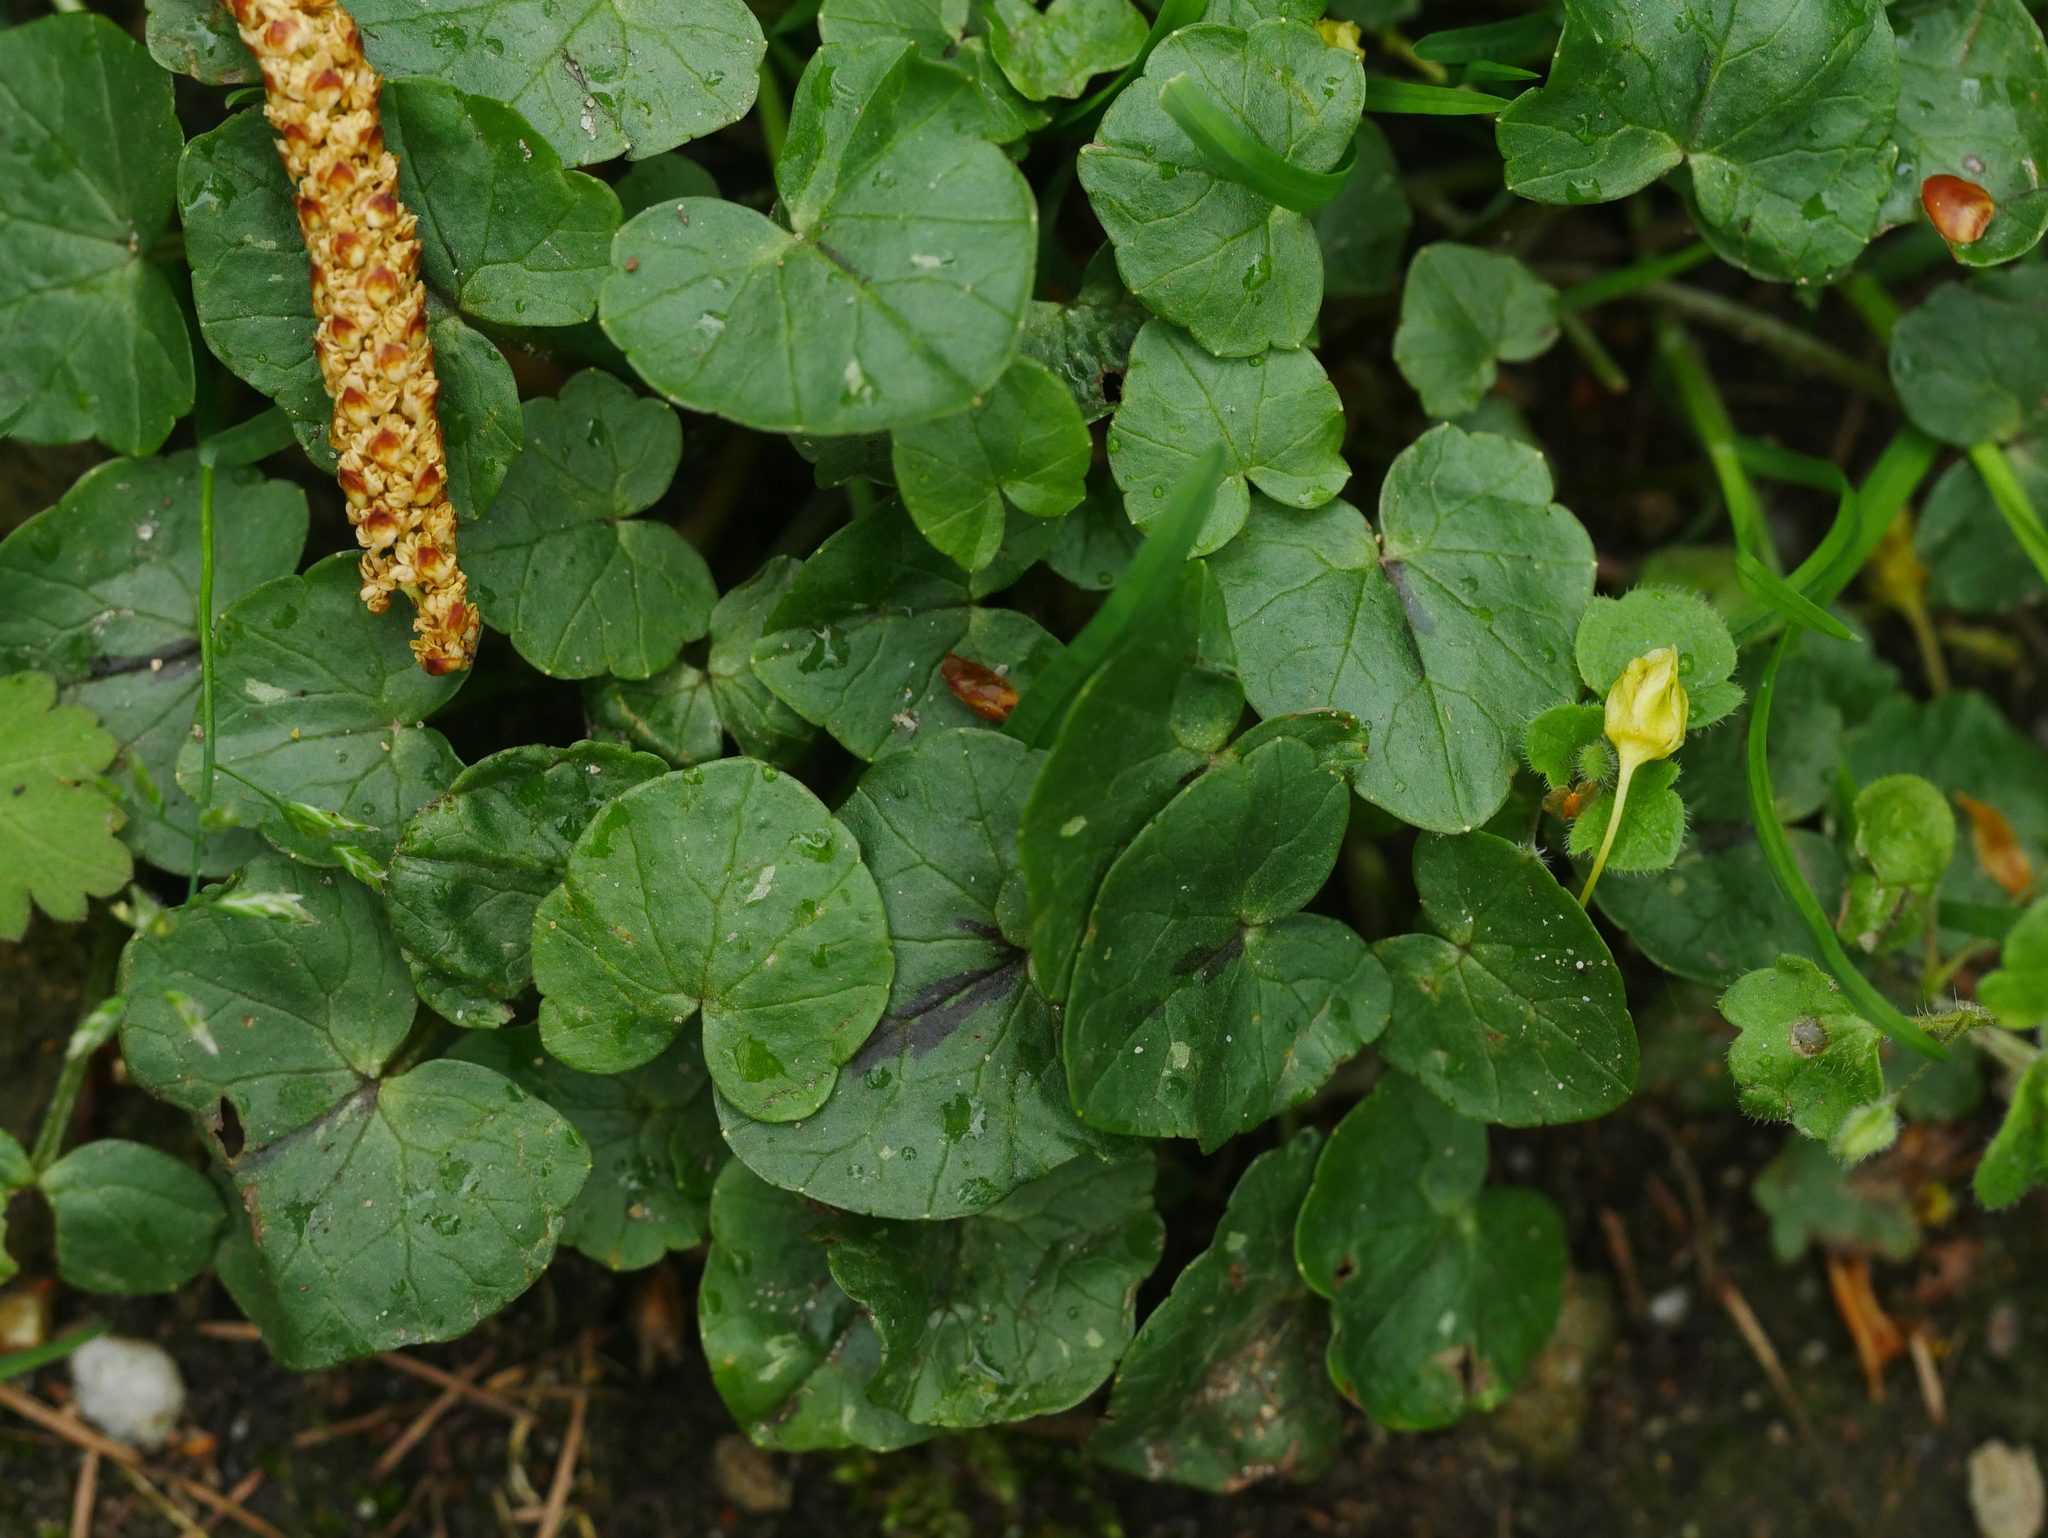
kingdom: Plantae
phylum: Tracheophyta
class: Magnoliopsida
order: Ranunculales
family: Ranunculaceae
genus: Ficaria
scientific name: Ficaria verna
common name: Lesser celandine
